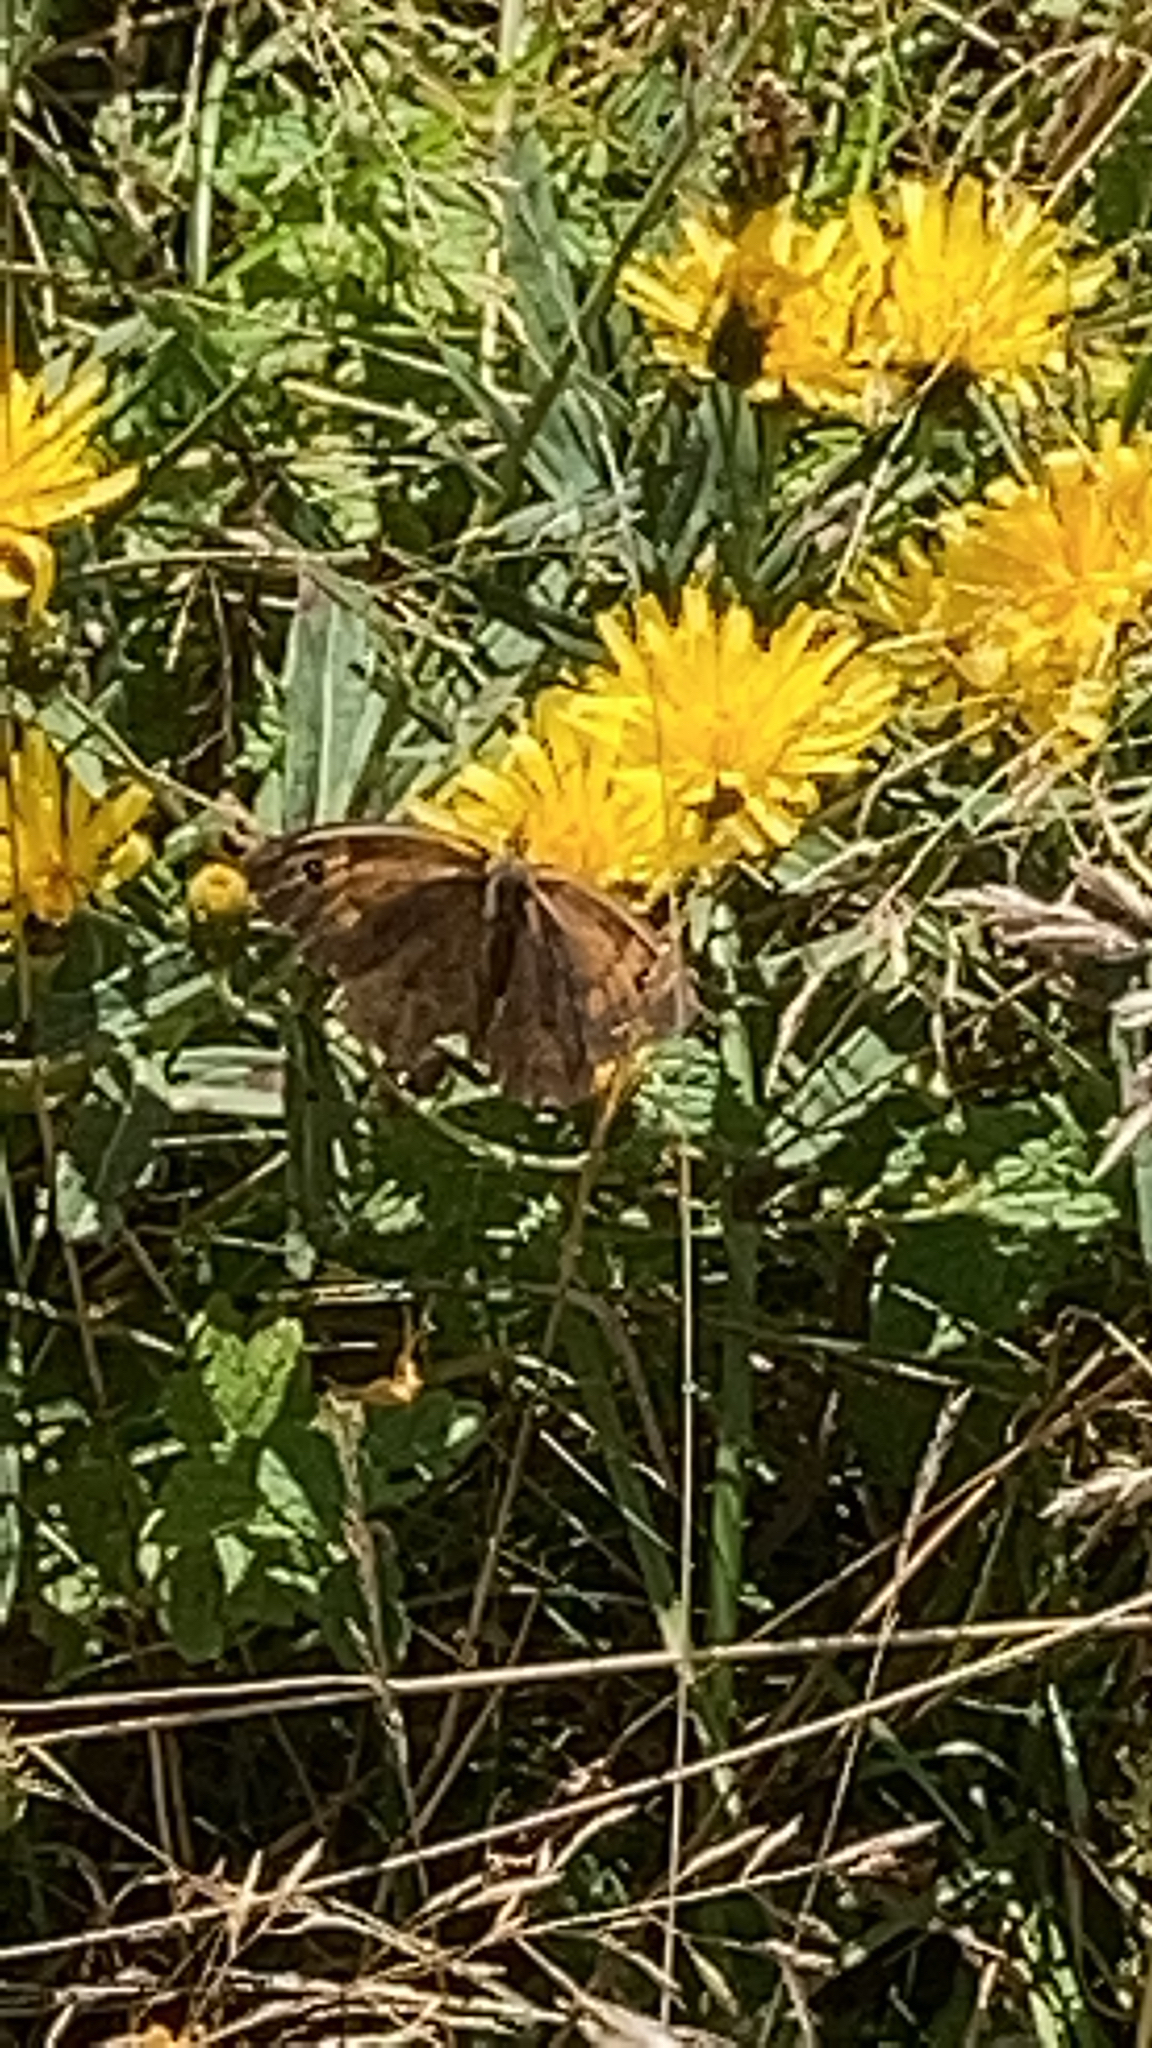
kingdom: Animalia
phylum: Arthropoda
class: Insecta
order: Lepidoptera
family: Nymphalidae
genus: Maniola
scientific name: Maniola jurtina
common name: Meadow brown
